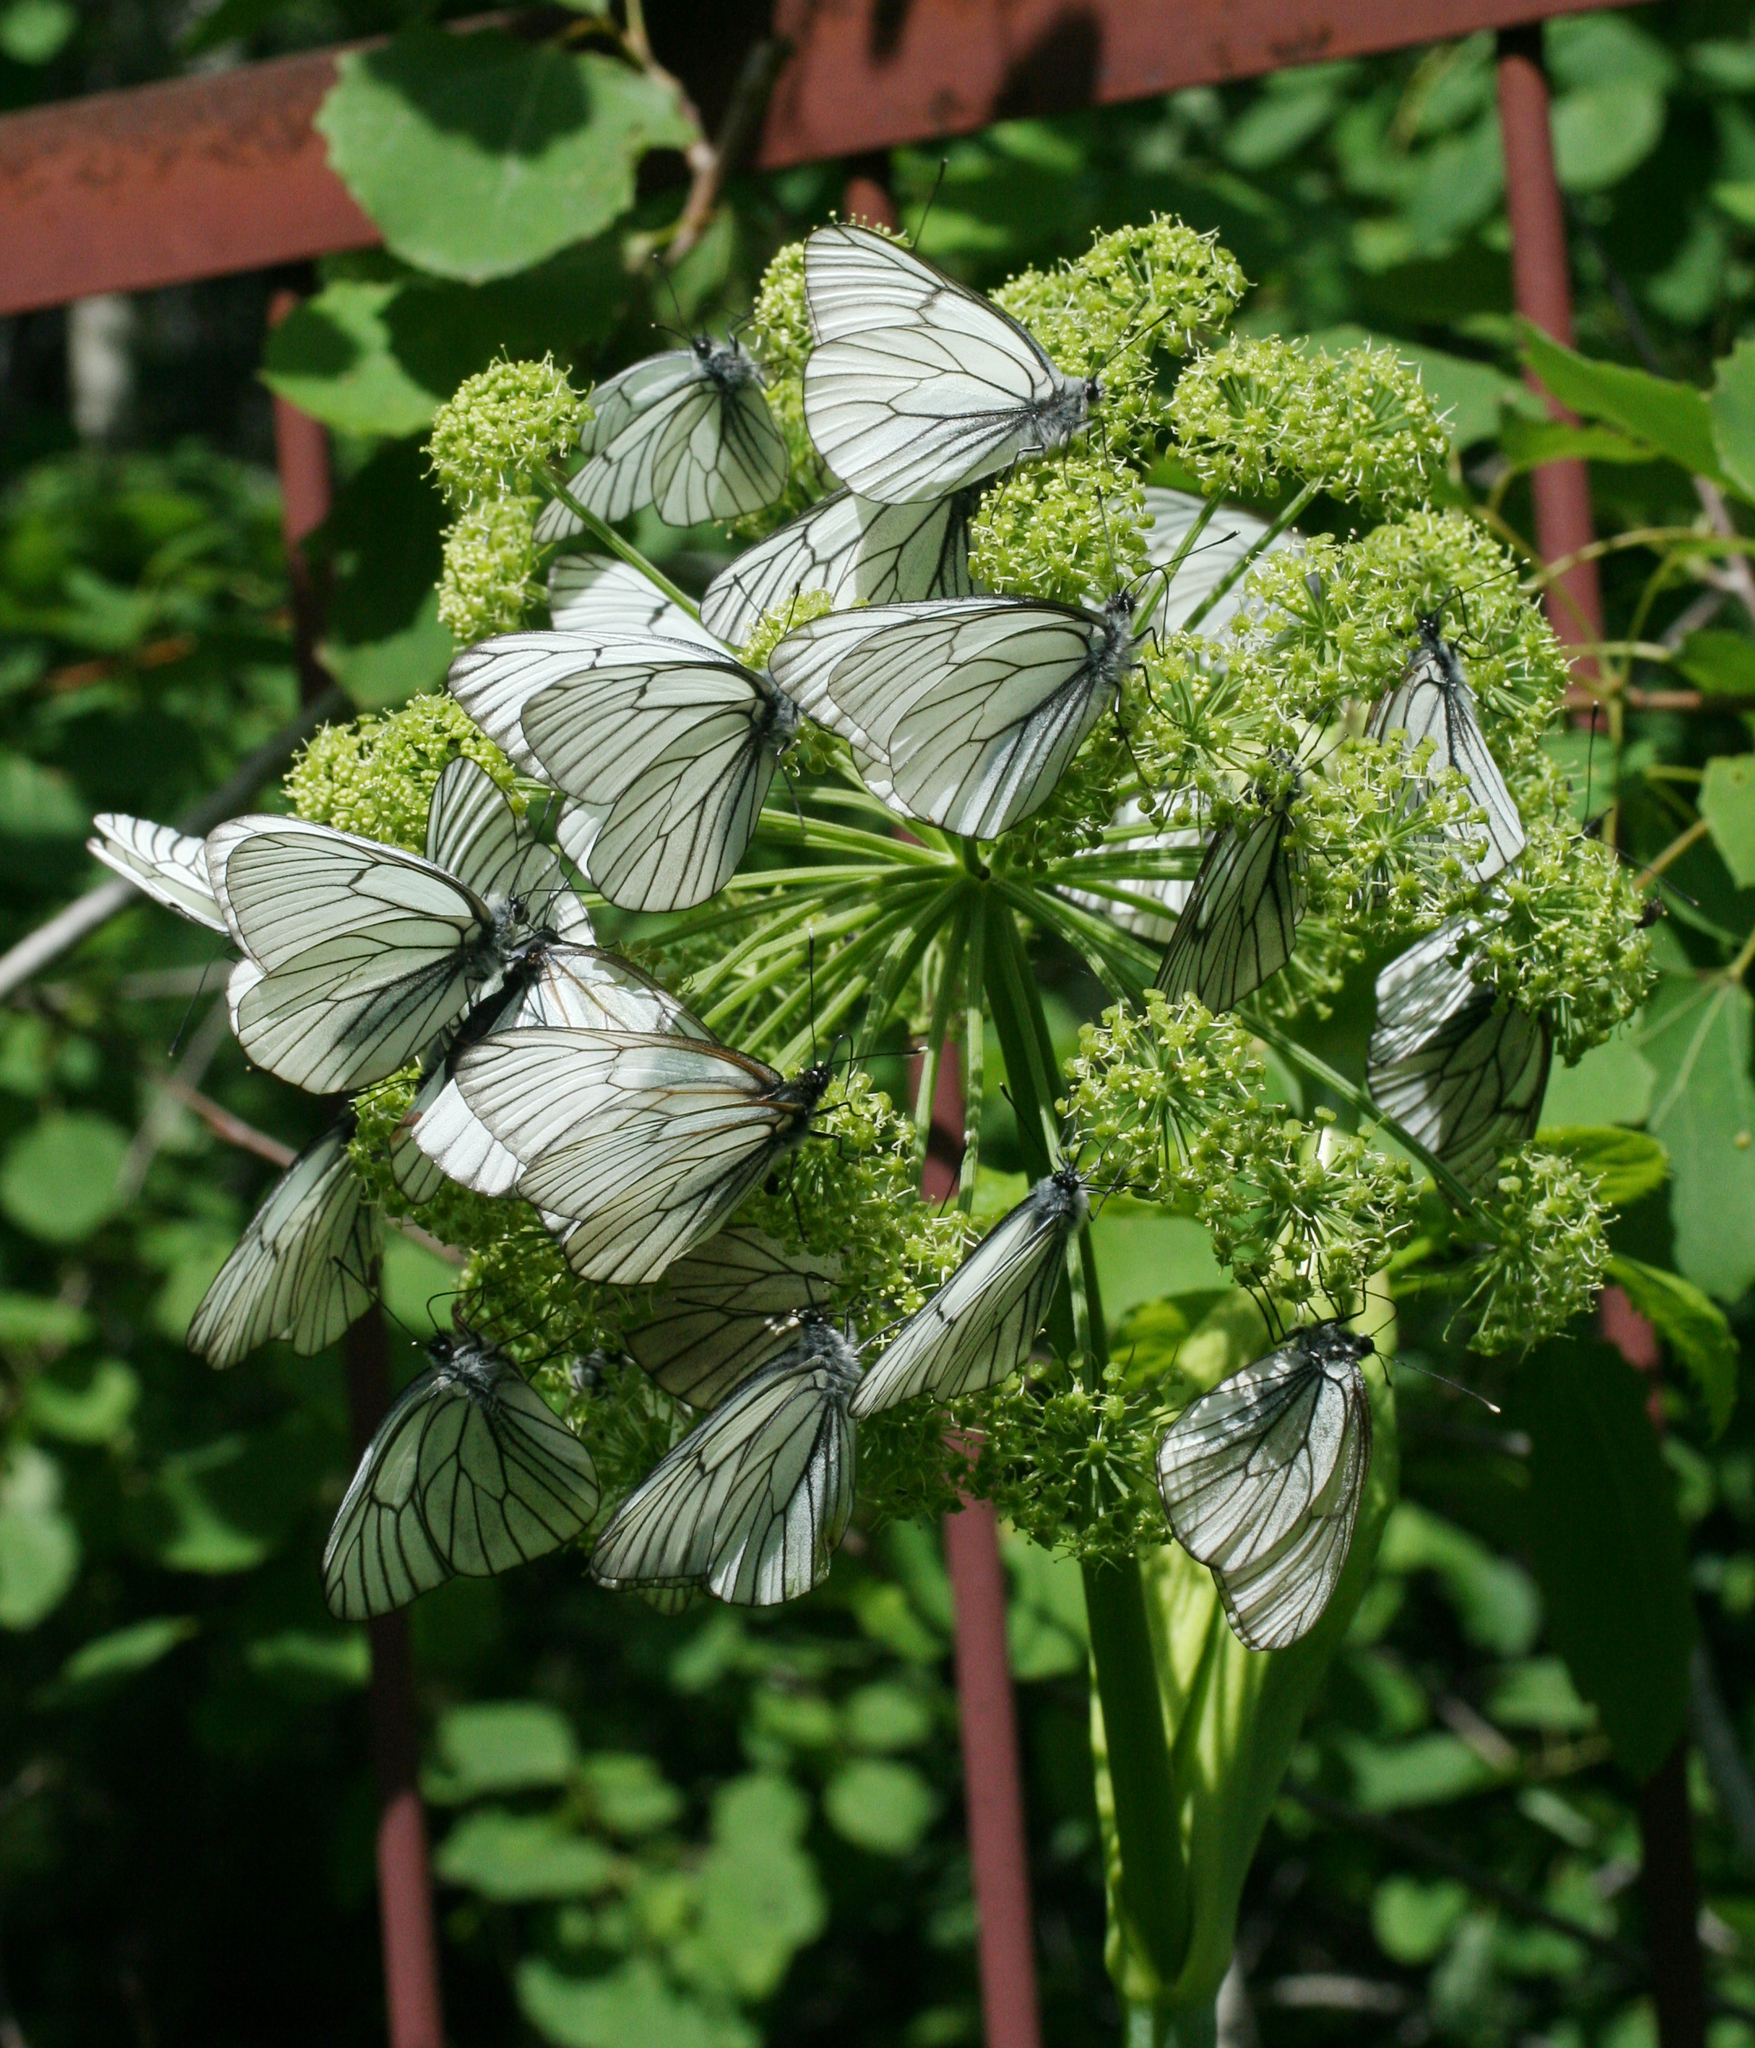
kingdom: Plantae
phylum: Tracheophyta
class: Magnoliopsida
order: Apiales
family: Apiaceae
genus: Angelica
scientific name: Angelica decurrens
